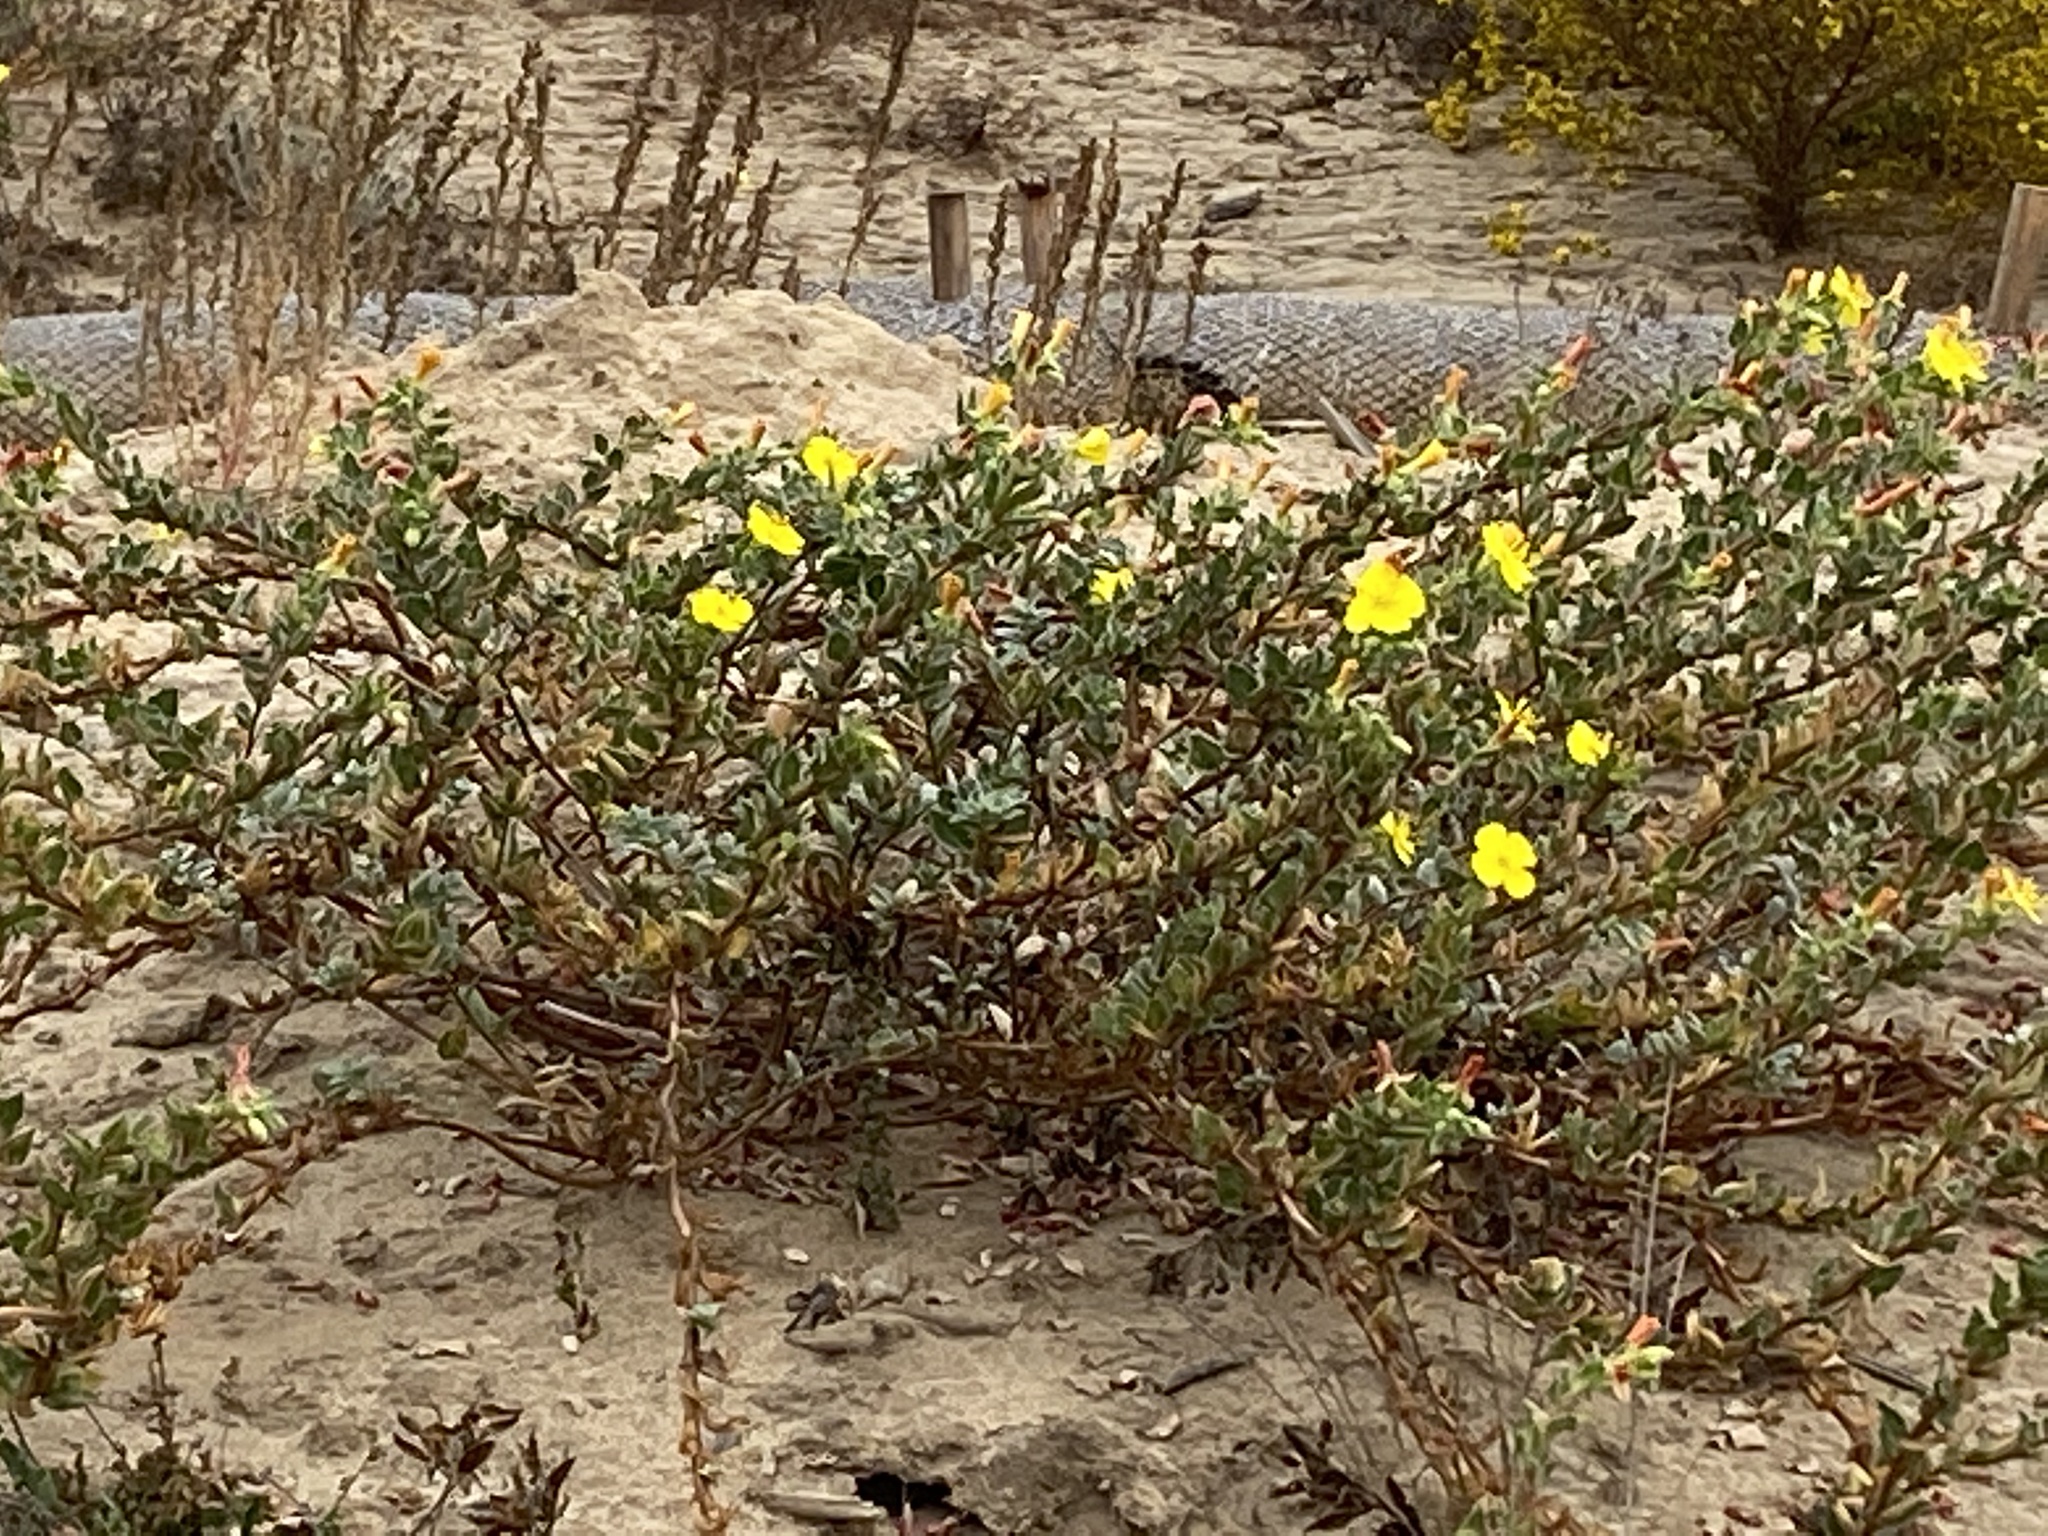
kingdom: Plantae
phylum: Tracheophyta
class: Magnoliopsida
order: Myrtales
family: Onagraceae
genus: Camissoniopsis
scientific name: Camissoniopsis cheiranthifolia
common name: Beach suncup
